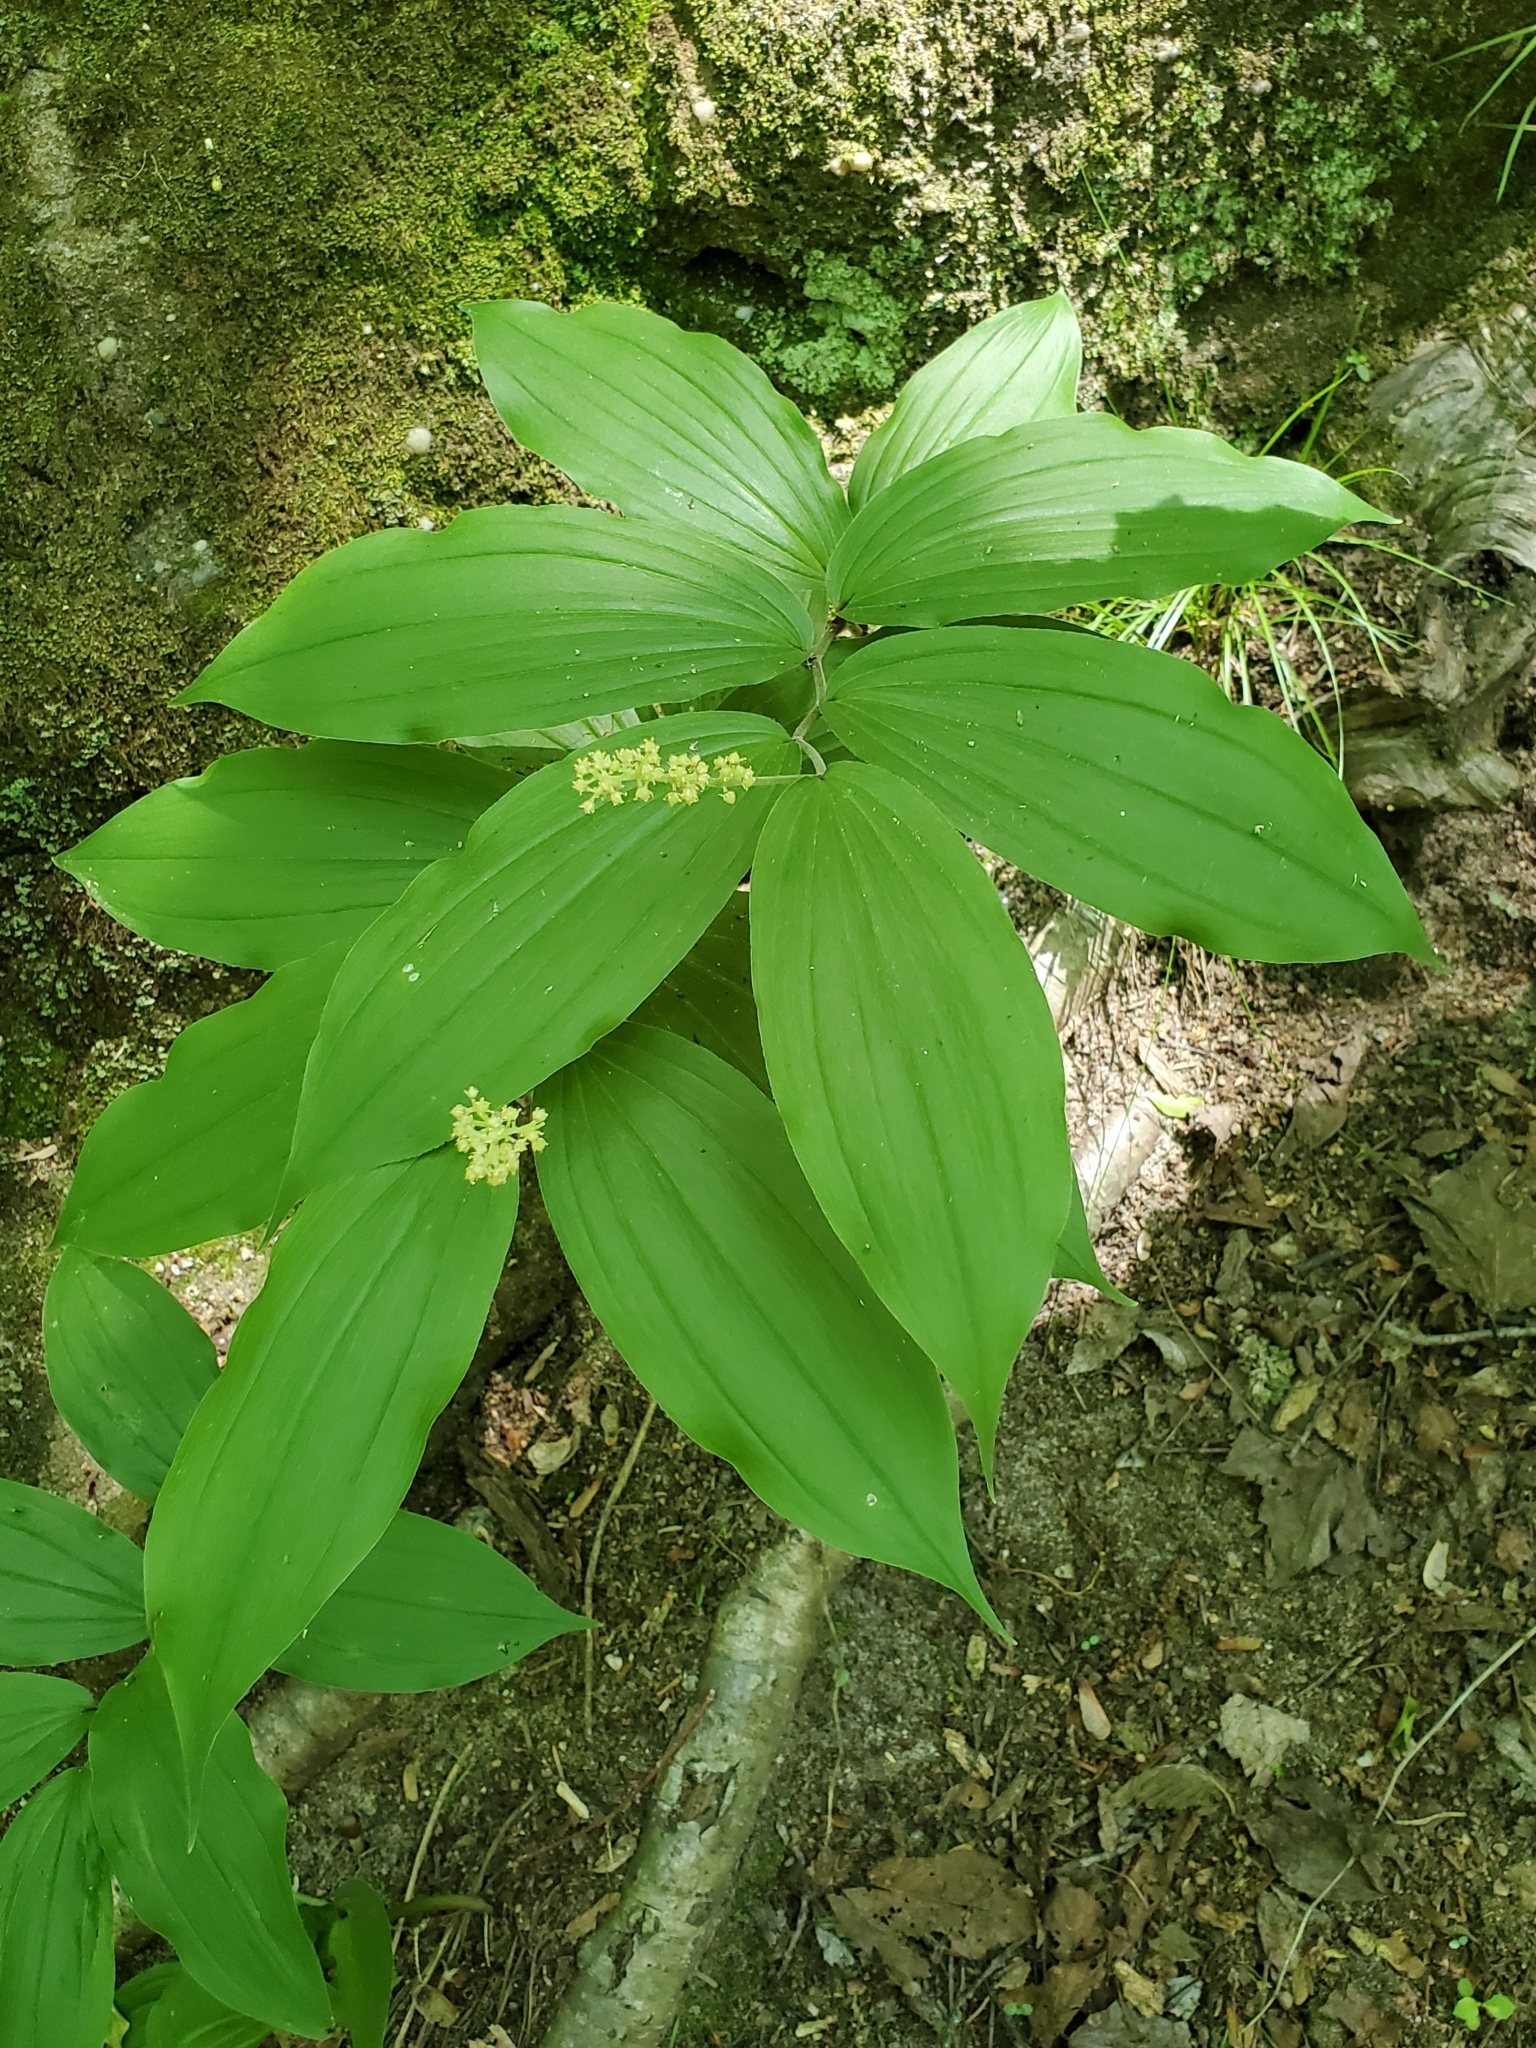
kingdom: Plantae
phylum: Tracheophyta
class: Liliopsida
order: Asparagales
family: Asparagaceae
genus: Maianthemum
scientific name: Maianthemum racemosum
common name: False spikenard
